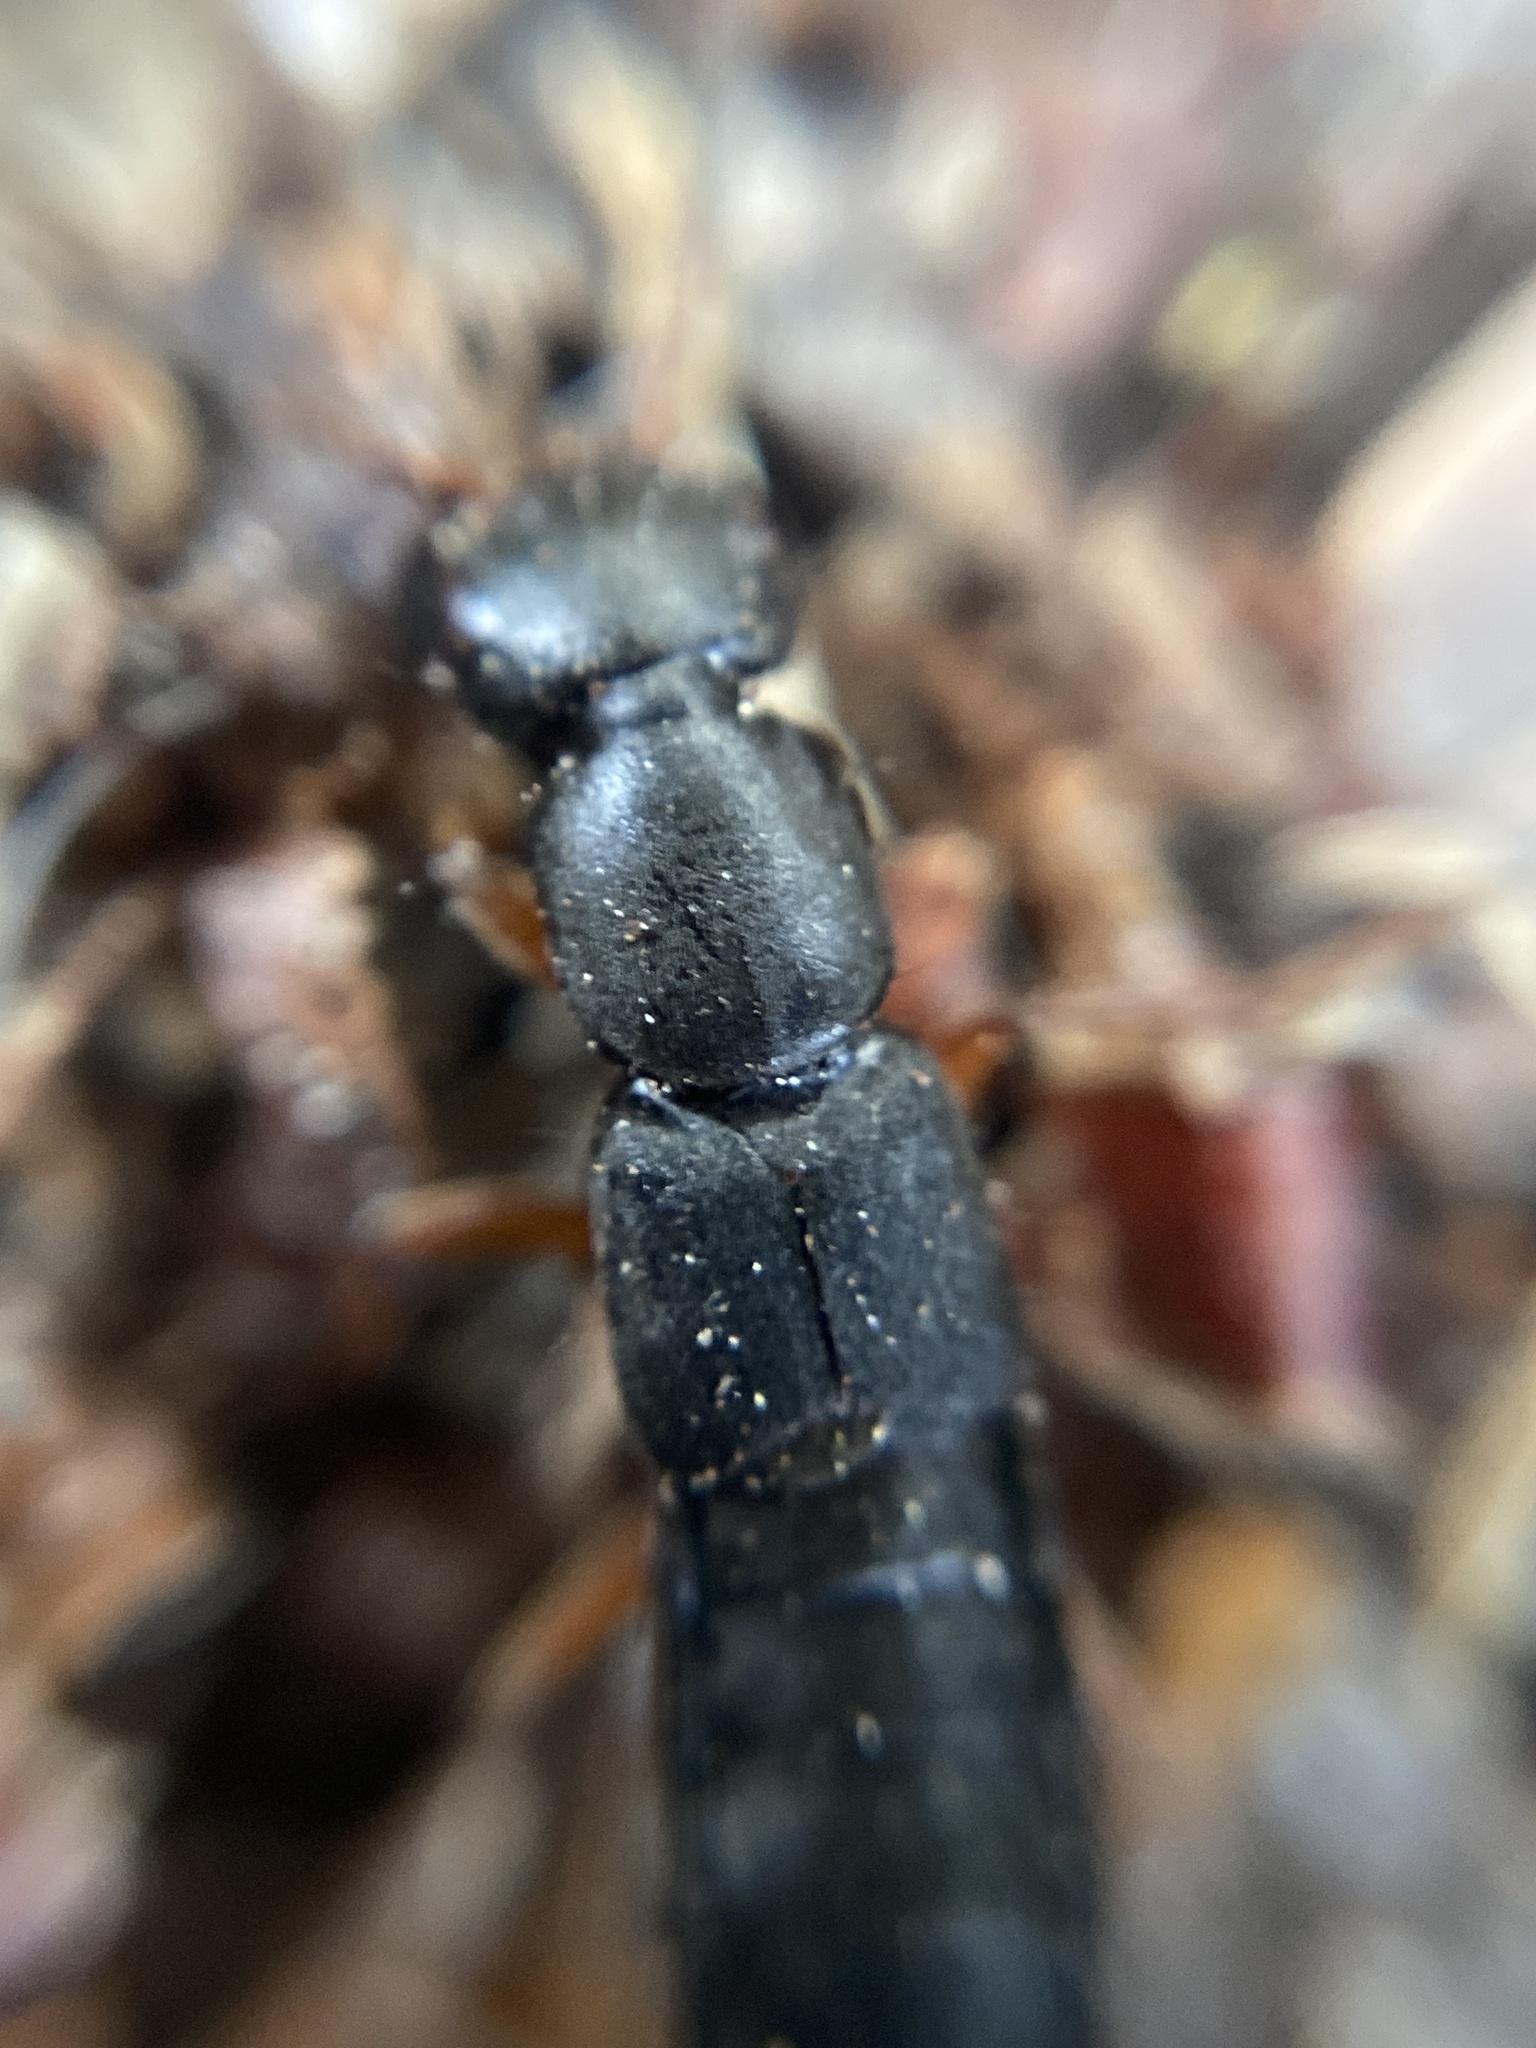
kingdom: Animalia
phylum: Arthropoda
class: Insecta
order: Coleoptera
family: Staphylinidae
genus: Tasgius
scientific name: Tasgius morsitans
